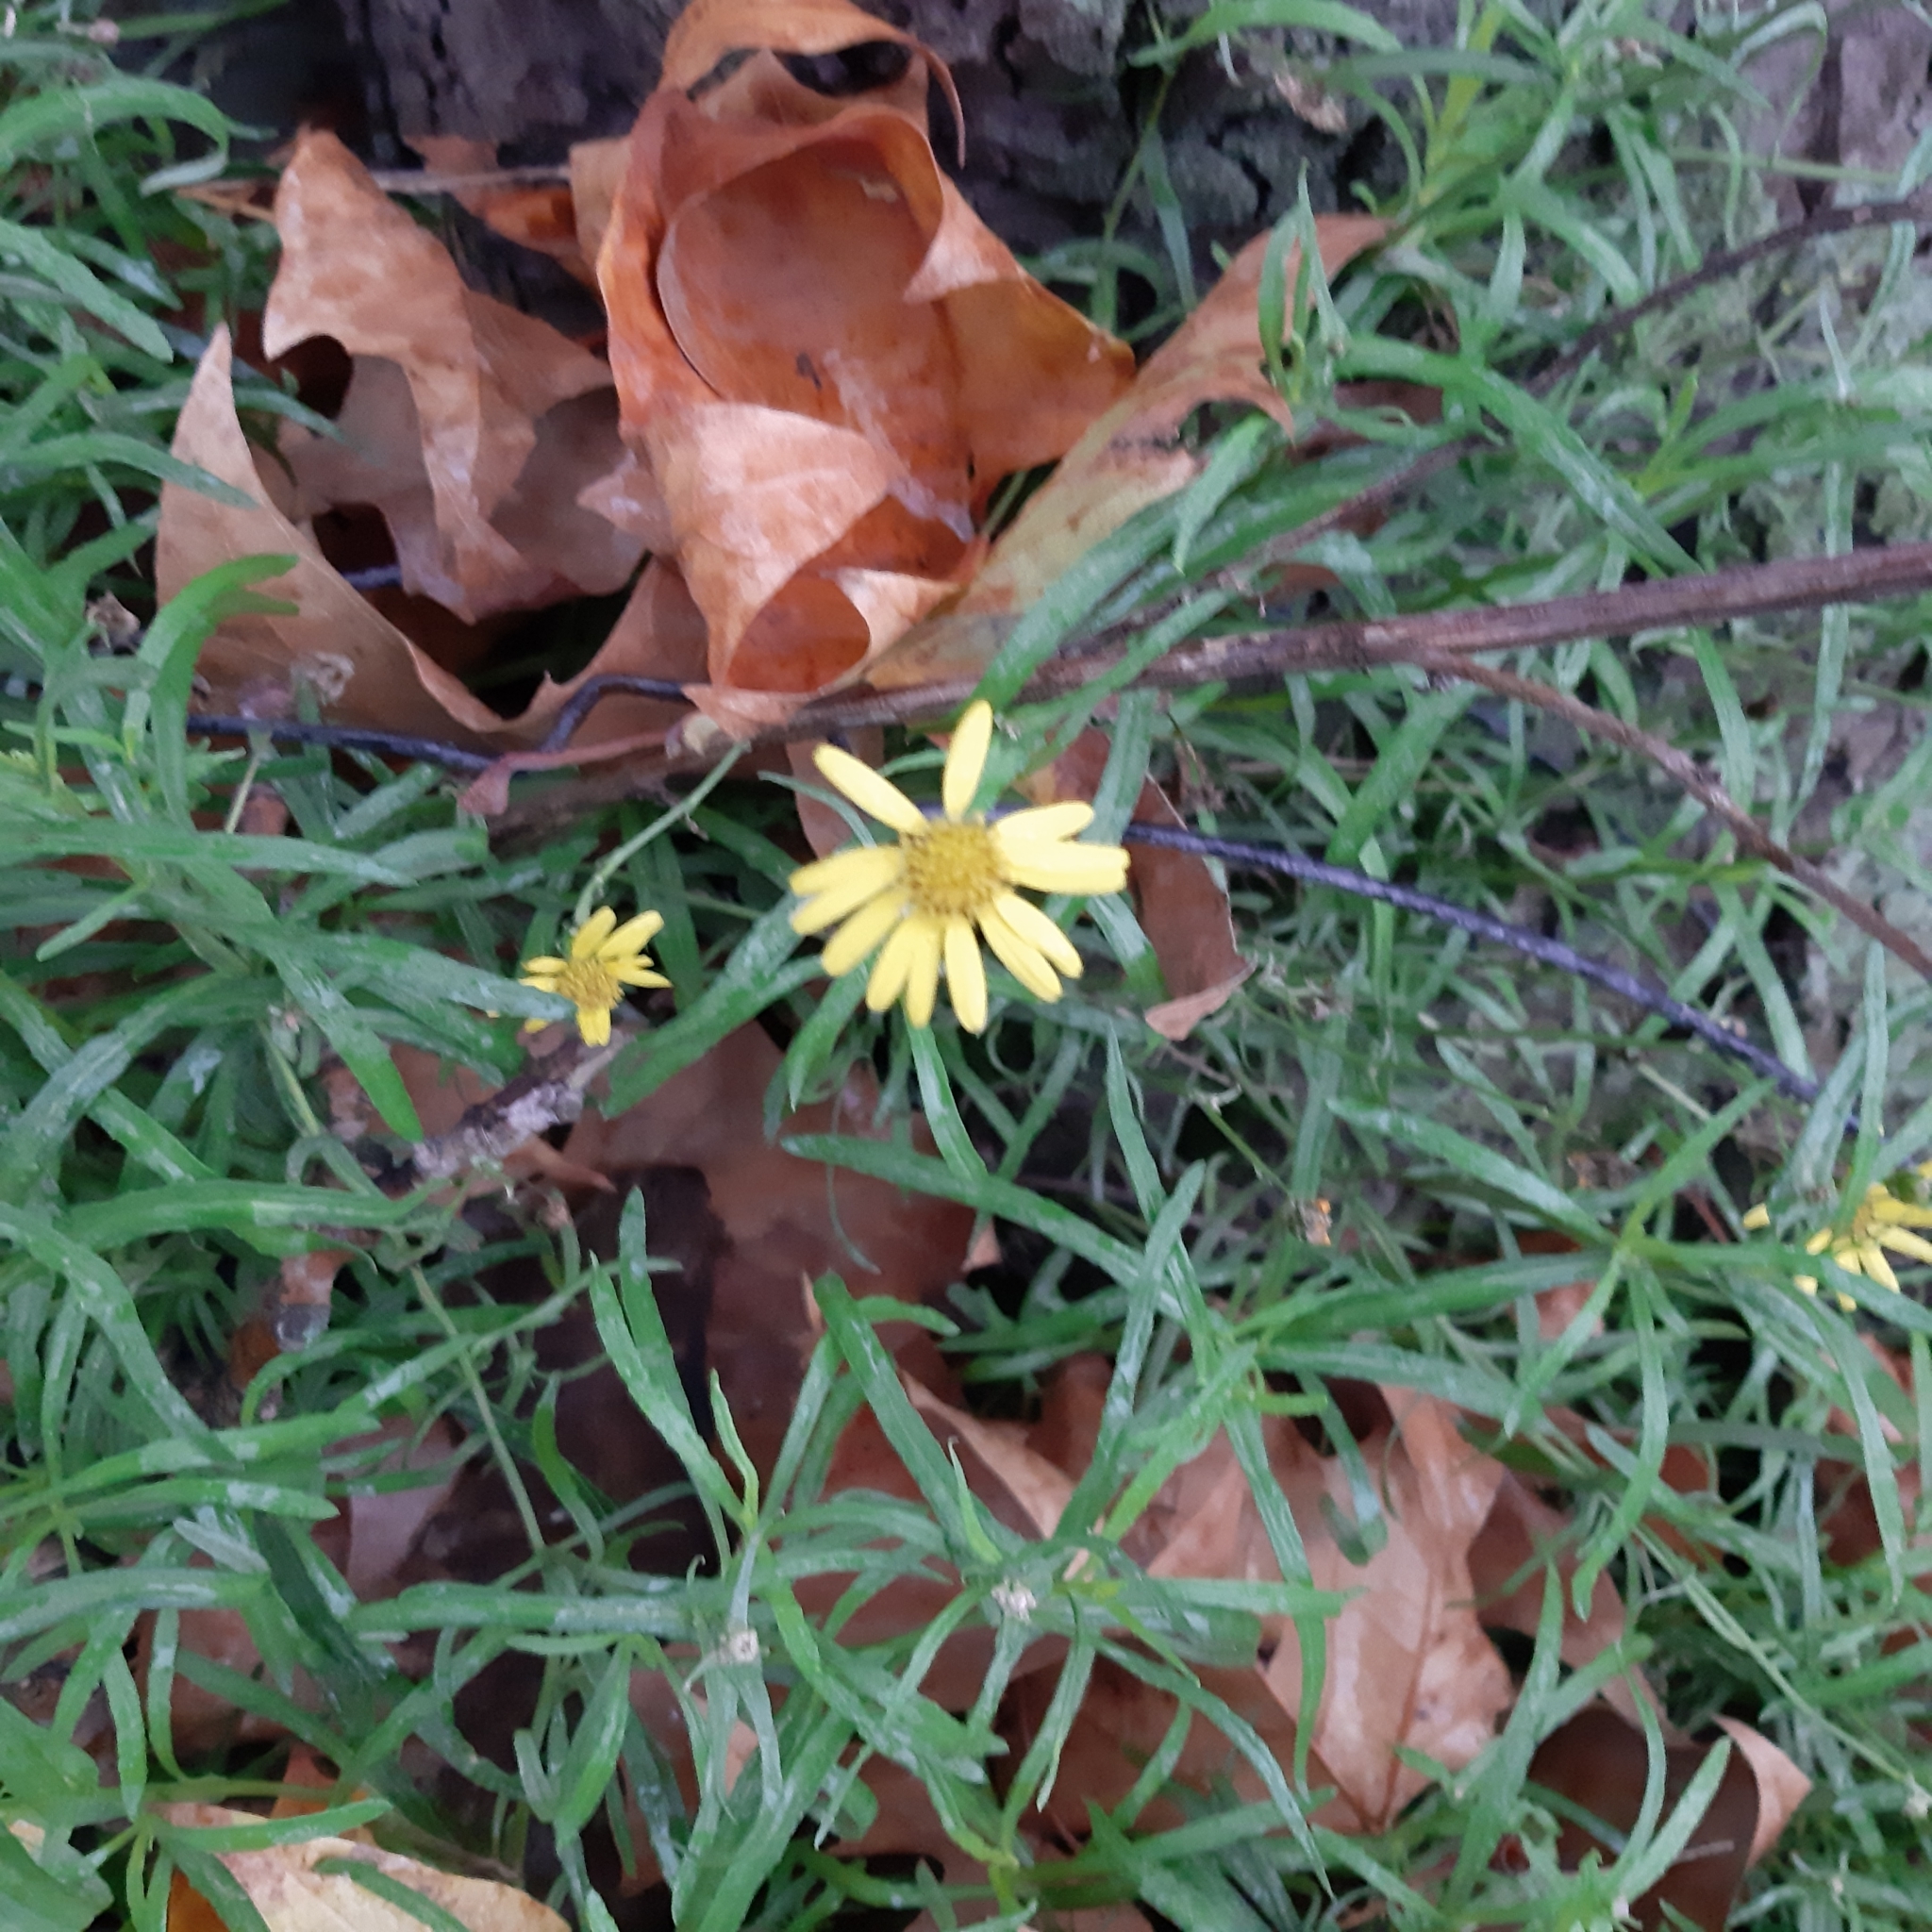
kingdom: Plantae
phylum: Tracheophyta
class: Magnoliopsida
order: Asterales
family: Asteraceae
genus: Senecio
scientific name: Senecio inaequidens
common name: Narrow-leaved ragwort
